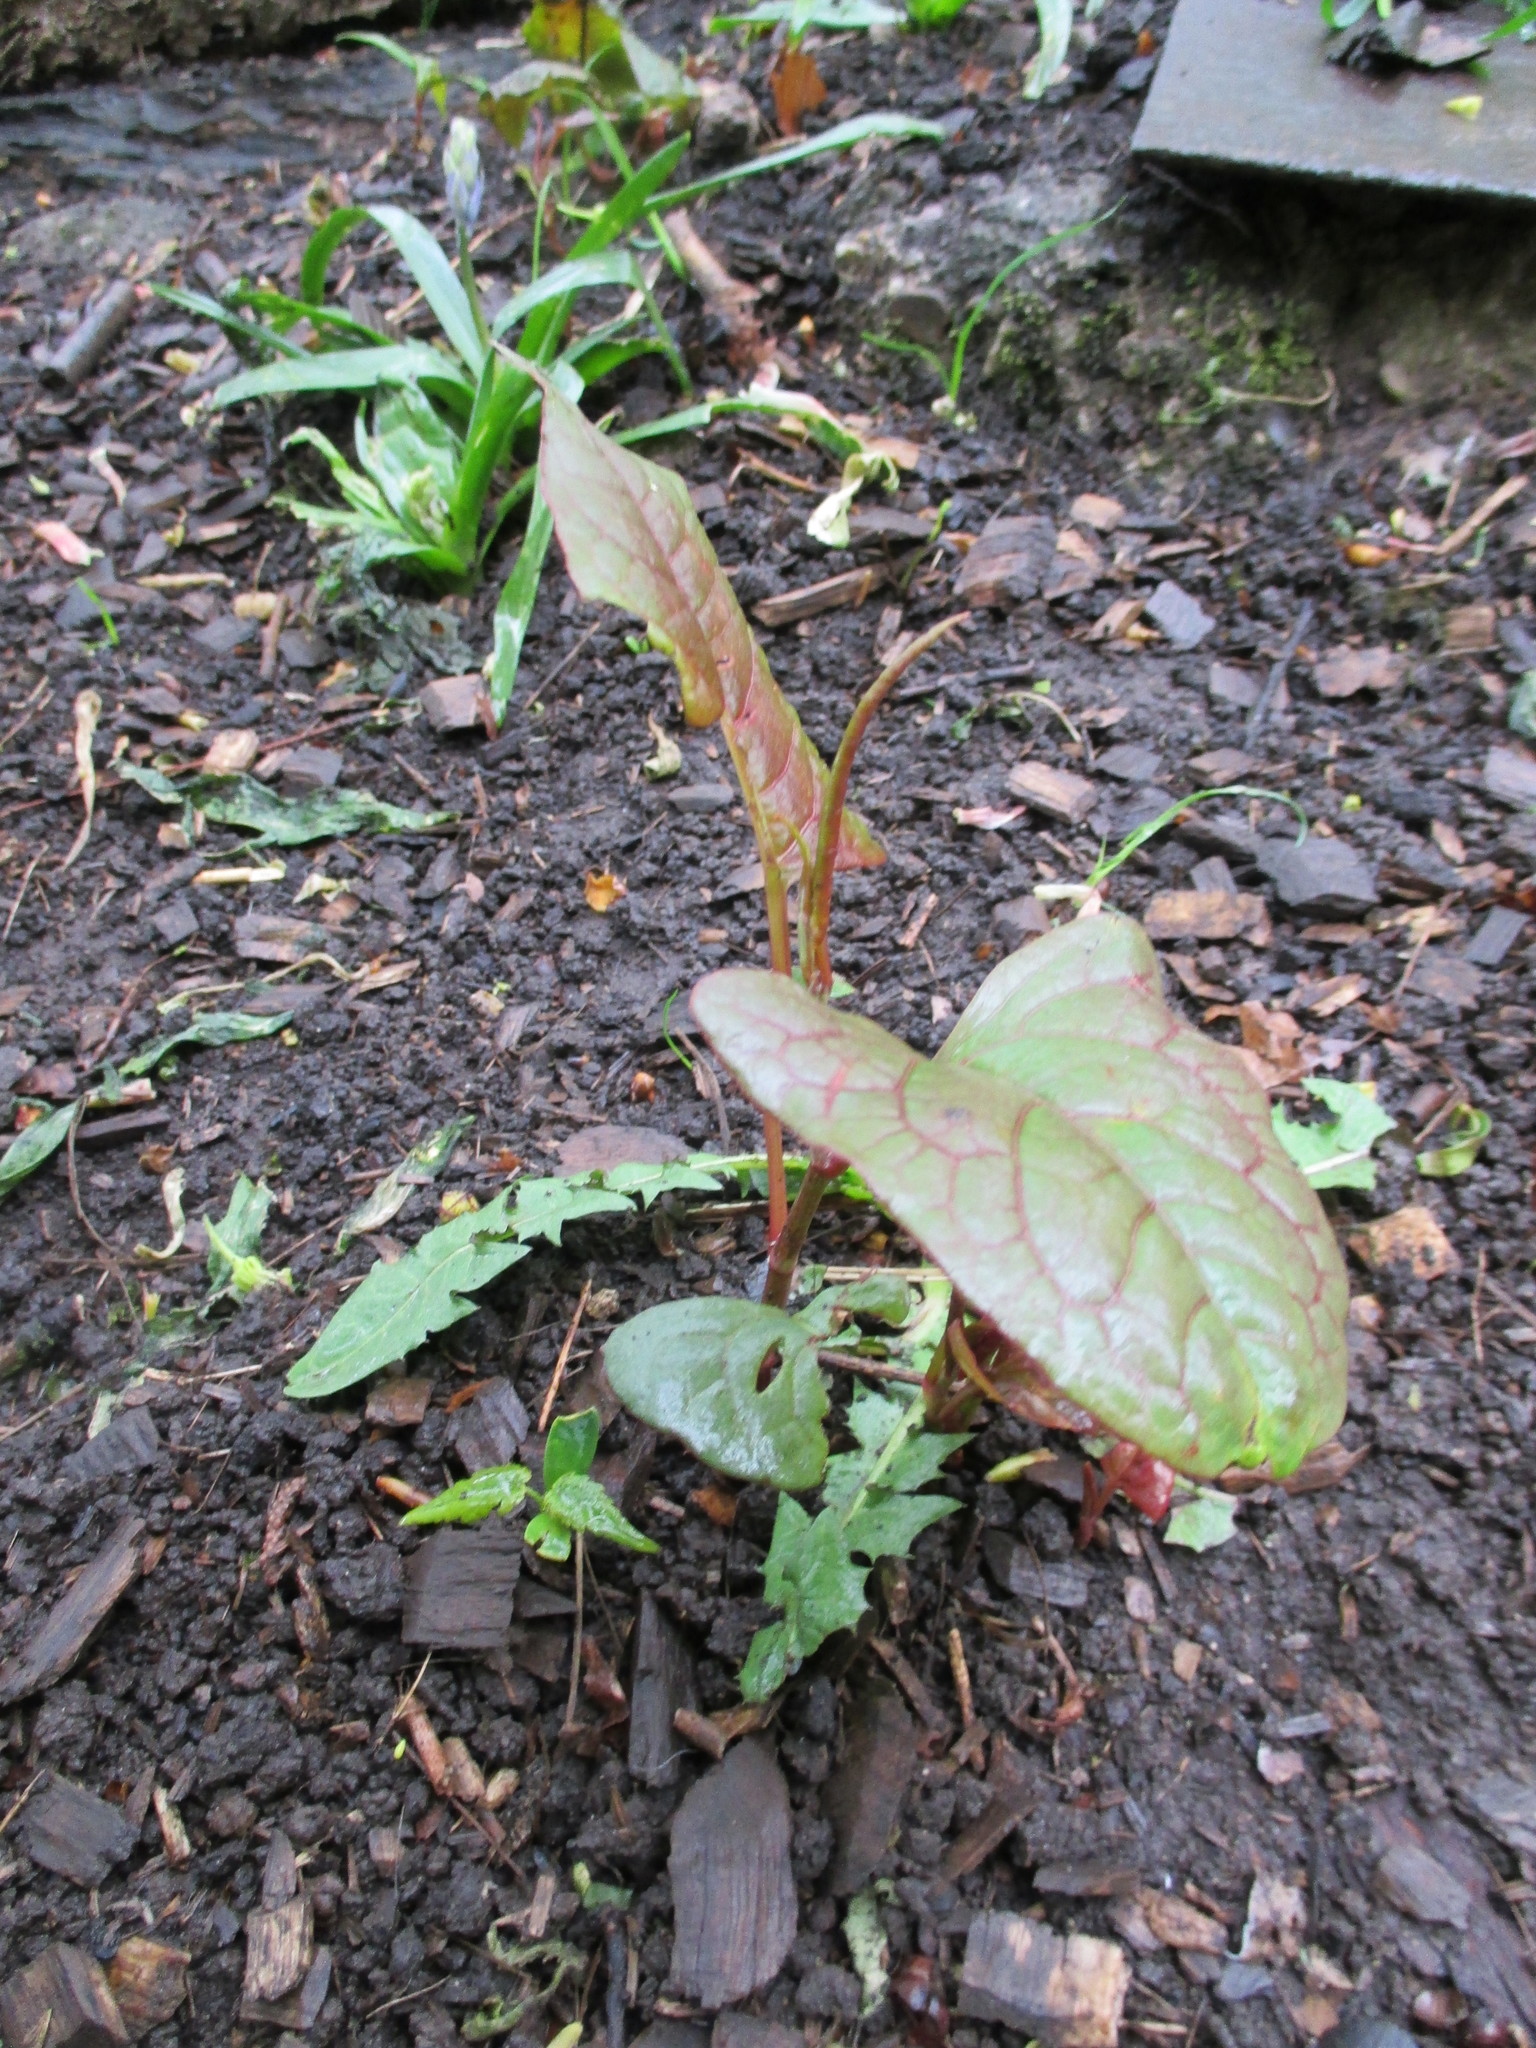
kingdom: Plantae
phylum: Tracheophyta
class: Magnoliopsida
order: Caryophyllales
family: Polygonaceae
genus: Reynoutria
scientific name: Reynoutria japonica
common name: Japanese knotweed
